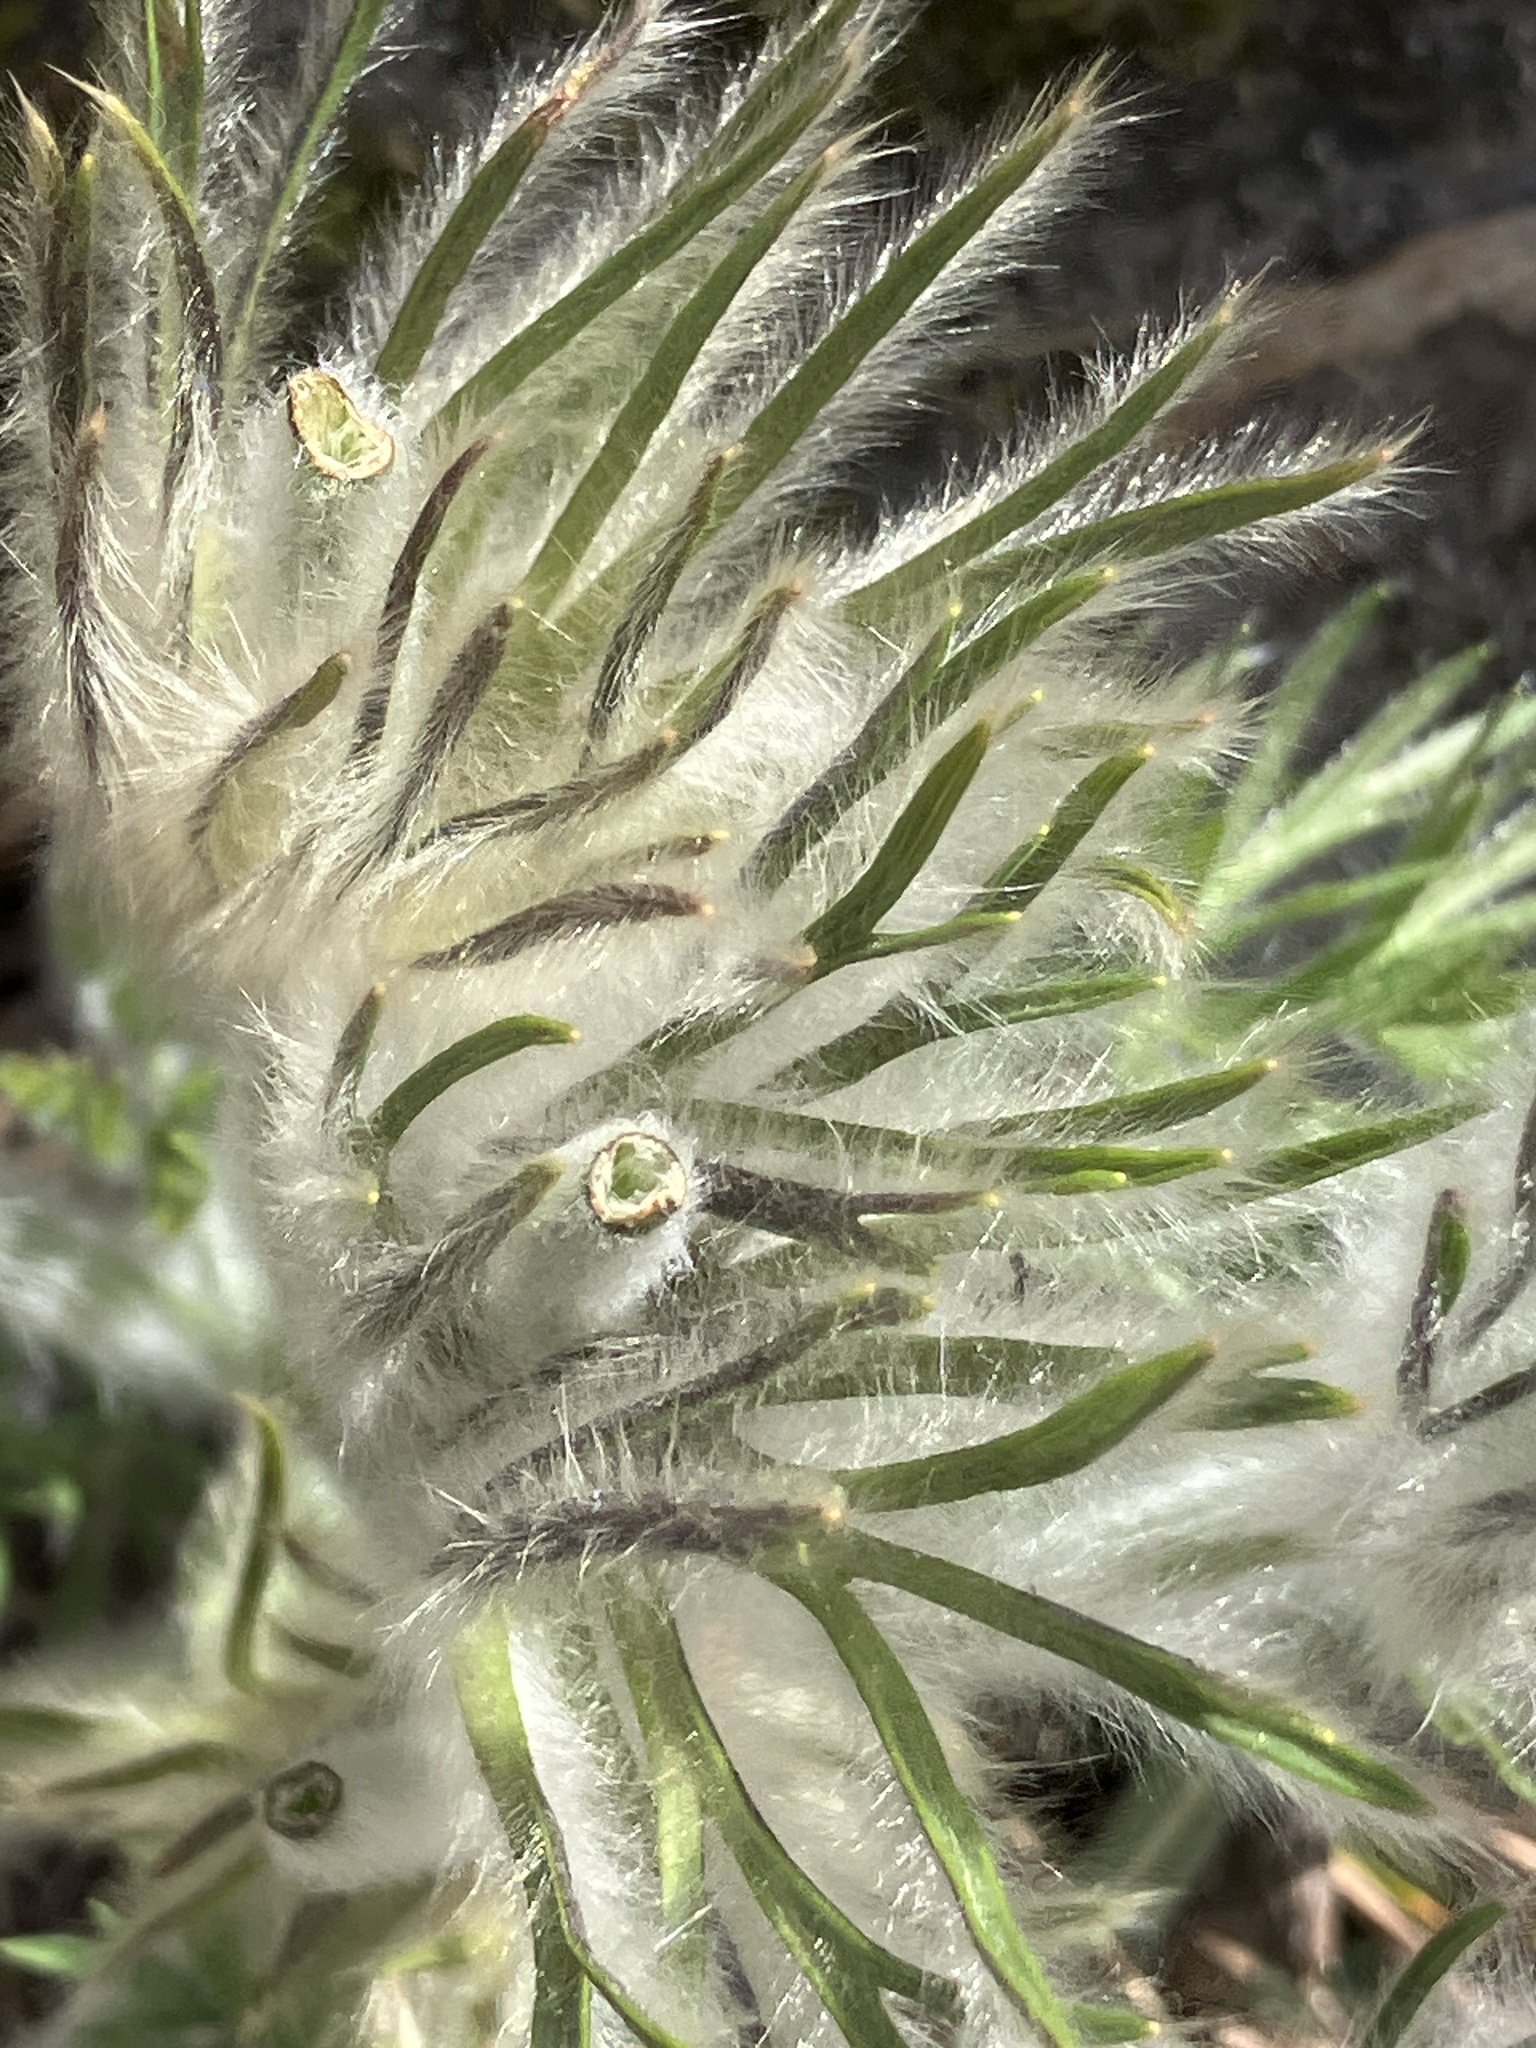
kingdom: Plantae
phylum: Tracheophyta
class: Magnoliopsida
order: Ranunculales
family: Ranunculaceae
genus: Pulsatilla
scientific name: Pulsatilla grandis
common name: Greater pasque flower
